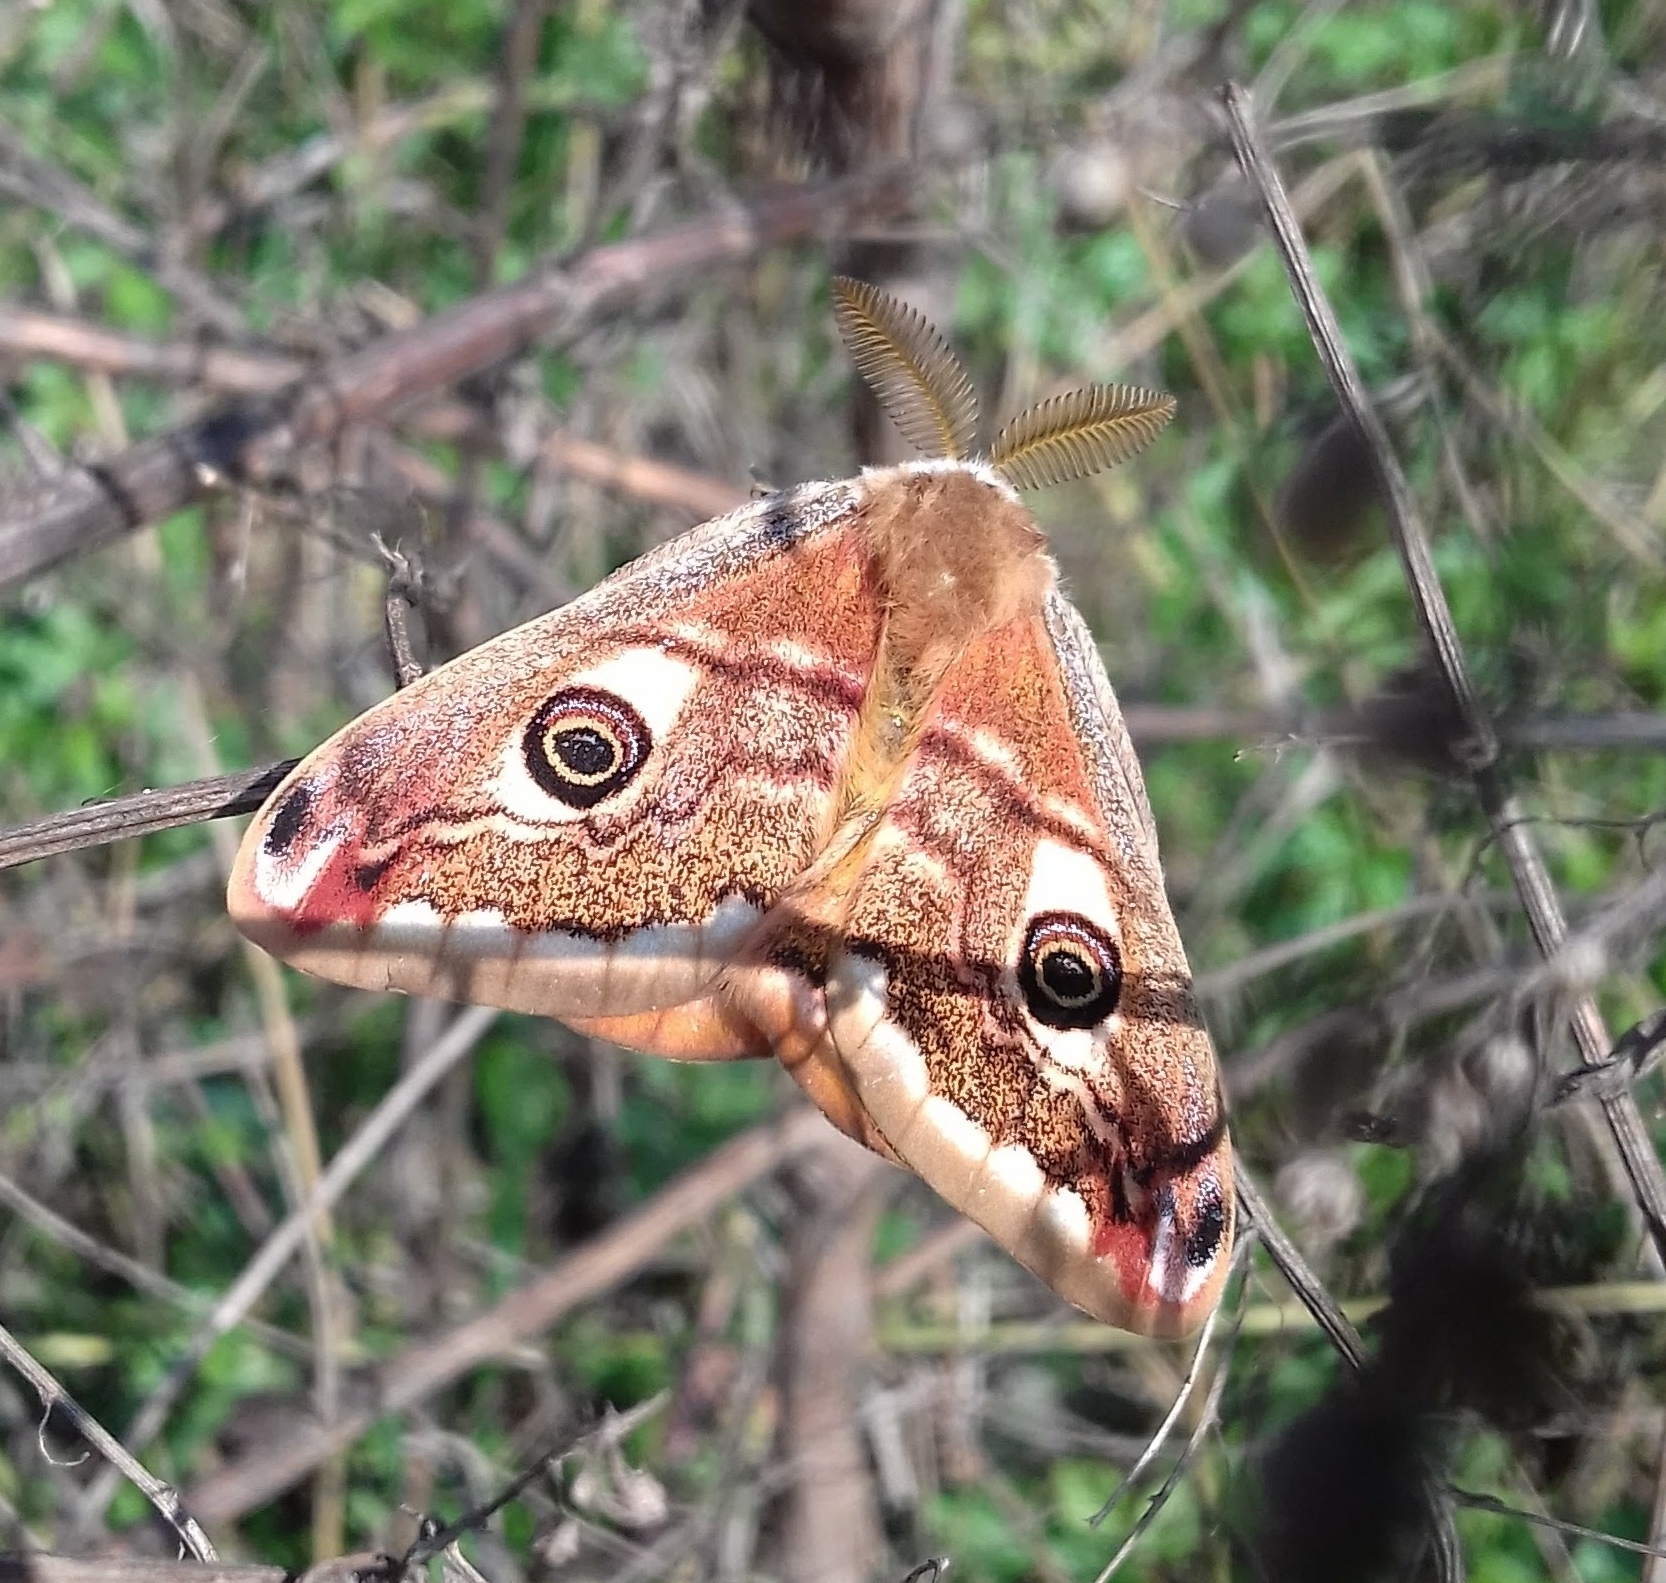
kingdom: Animalia
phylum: Arthropoda
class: Insecta
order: Lepidoptera
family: Saturniidae
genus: Saturnia
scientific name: Saturnia pavoniella
